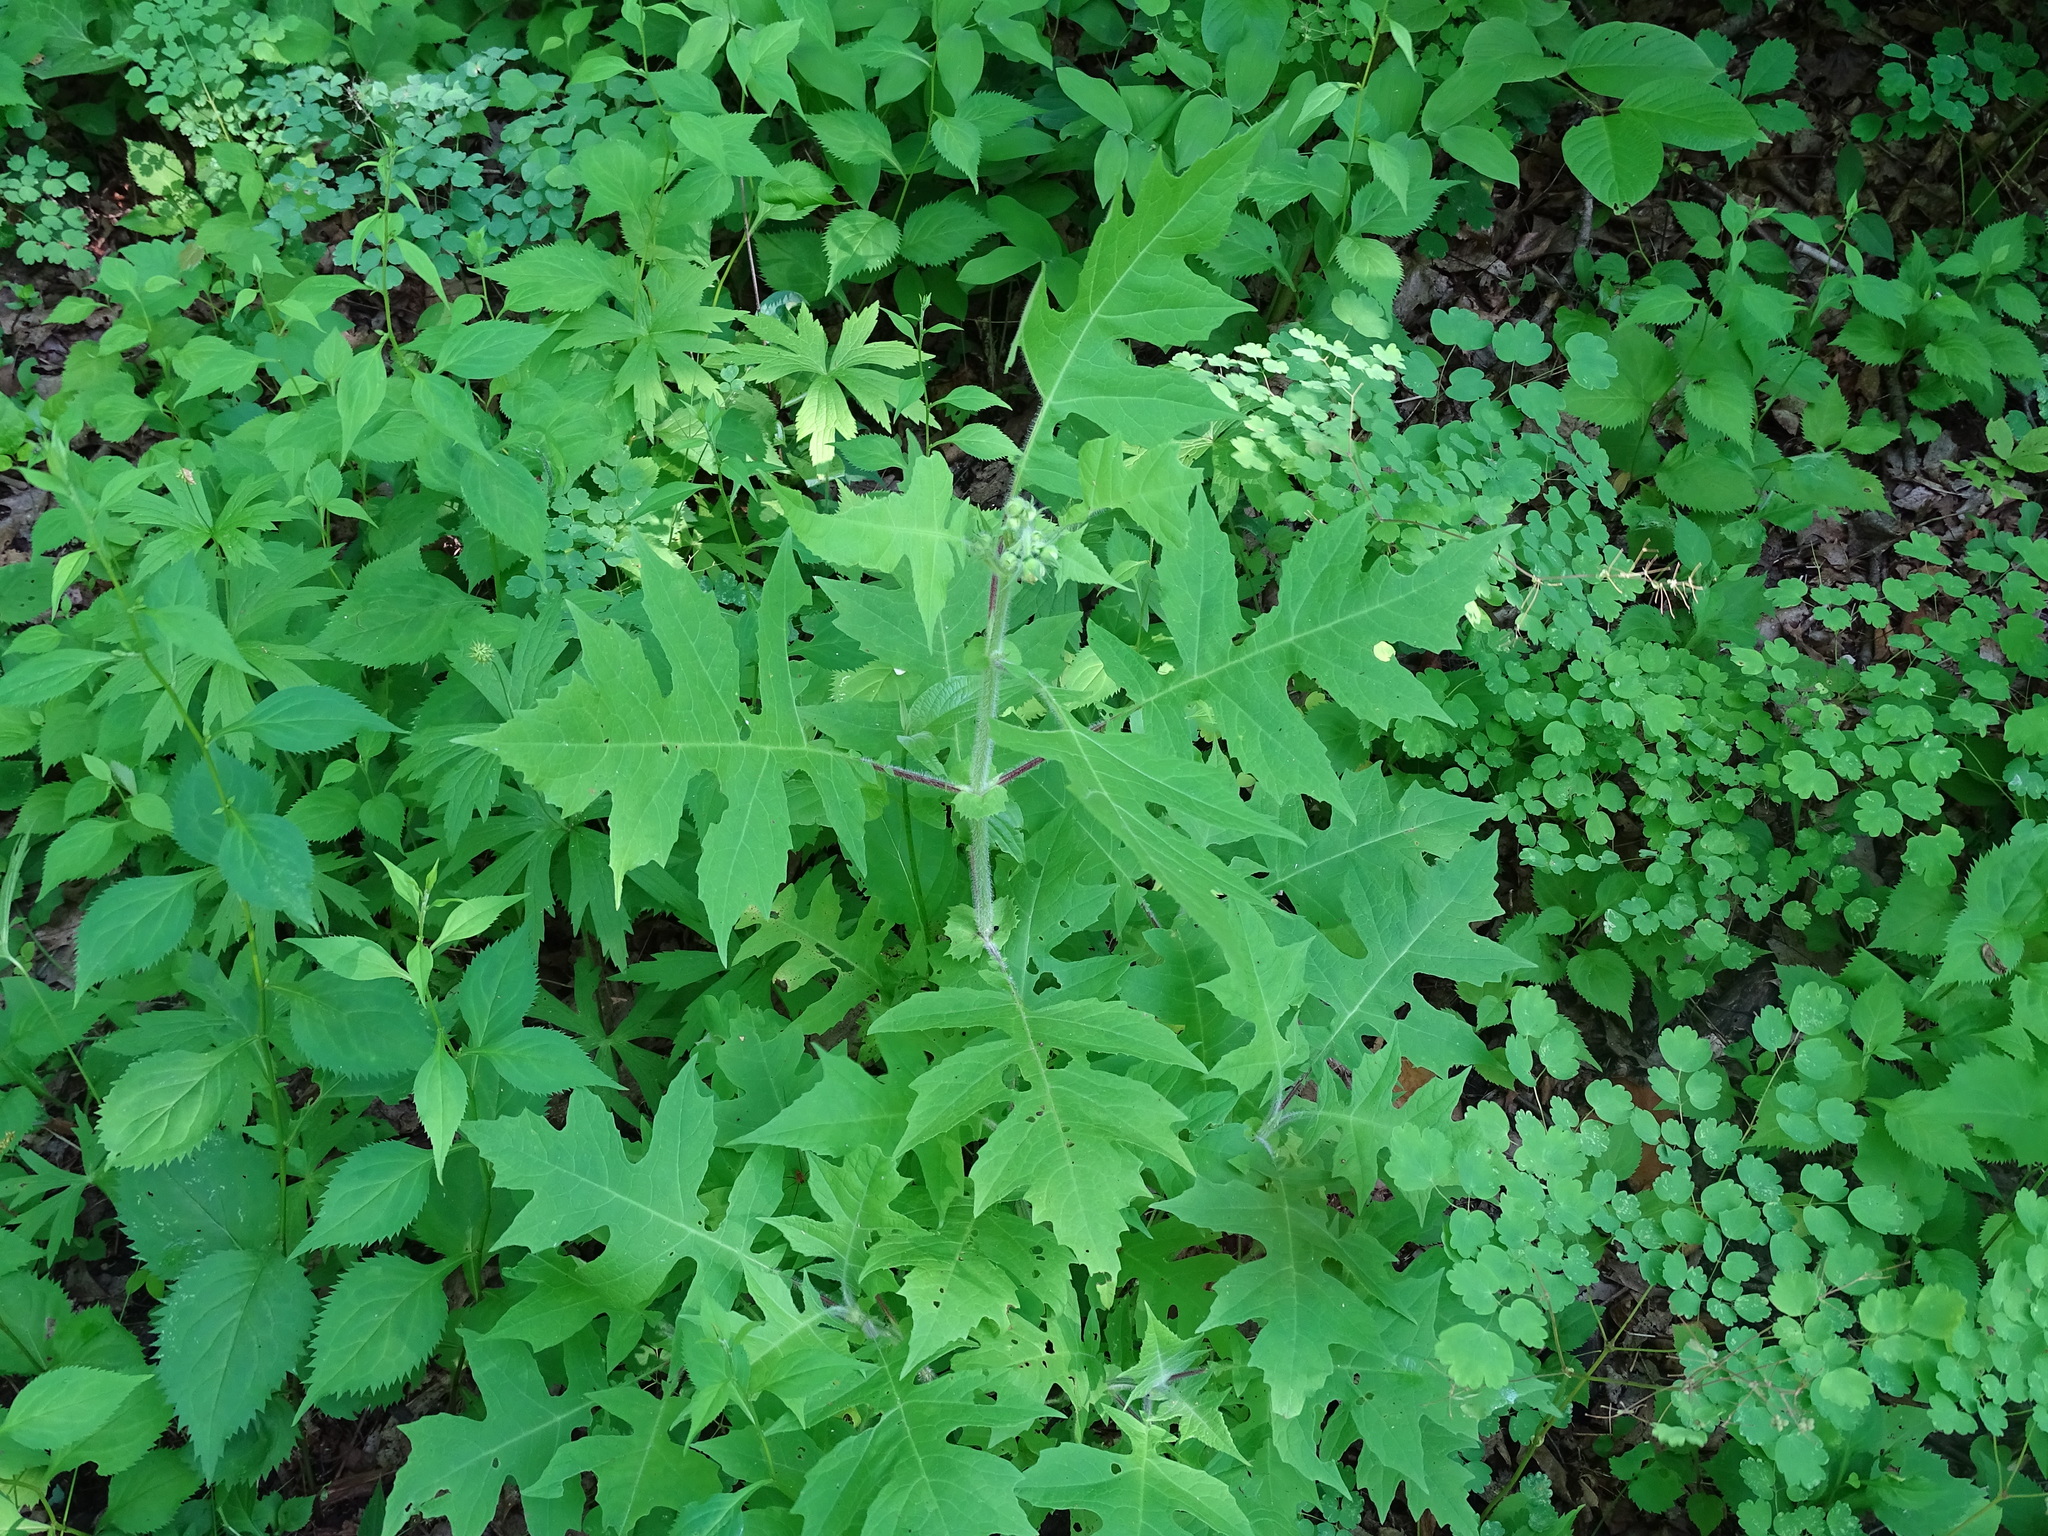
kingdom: Plantae
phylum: Tracheophyta
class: Magnoliopsida
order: Asterales
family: Asteraceae
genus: Polymnia
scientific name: Polymnia canadensis
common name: Pale-flowered leafcup
